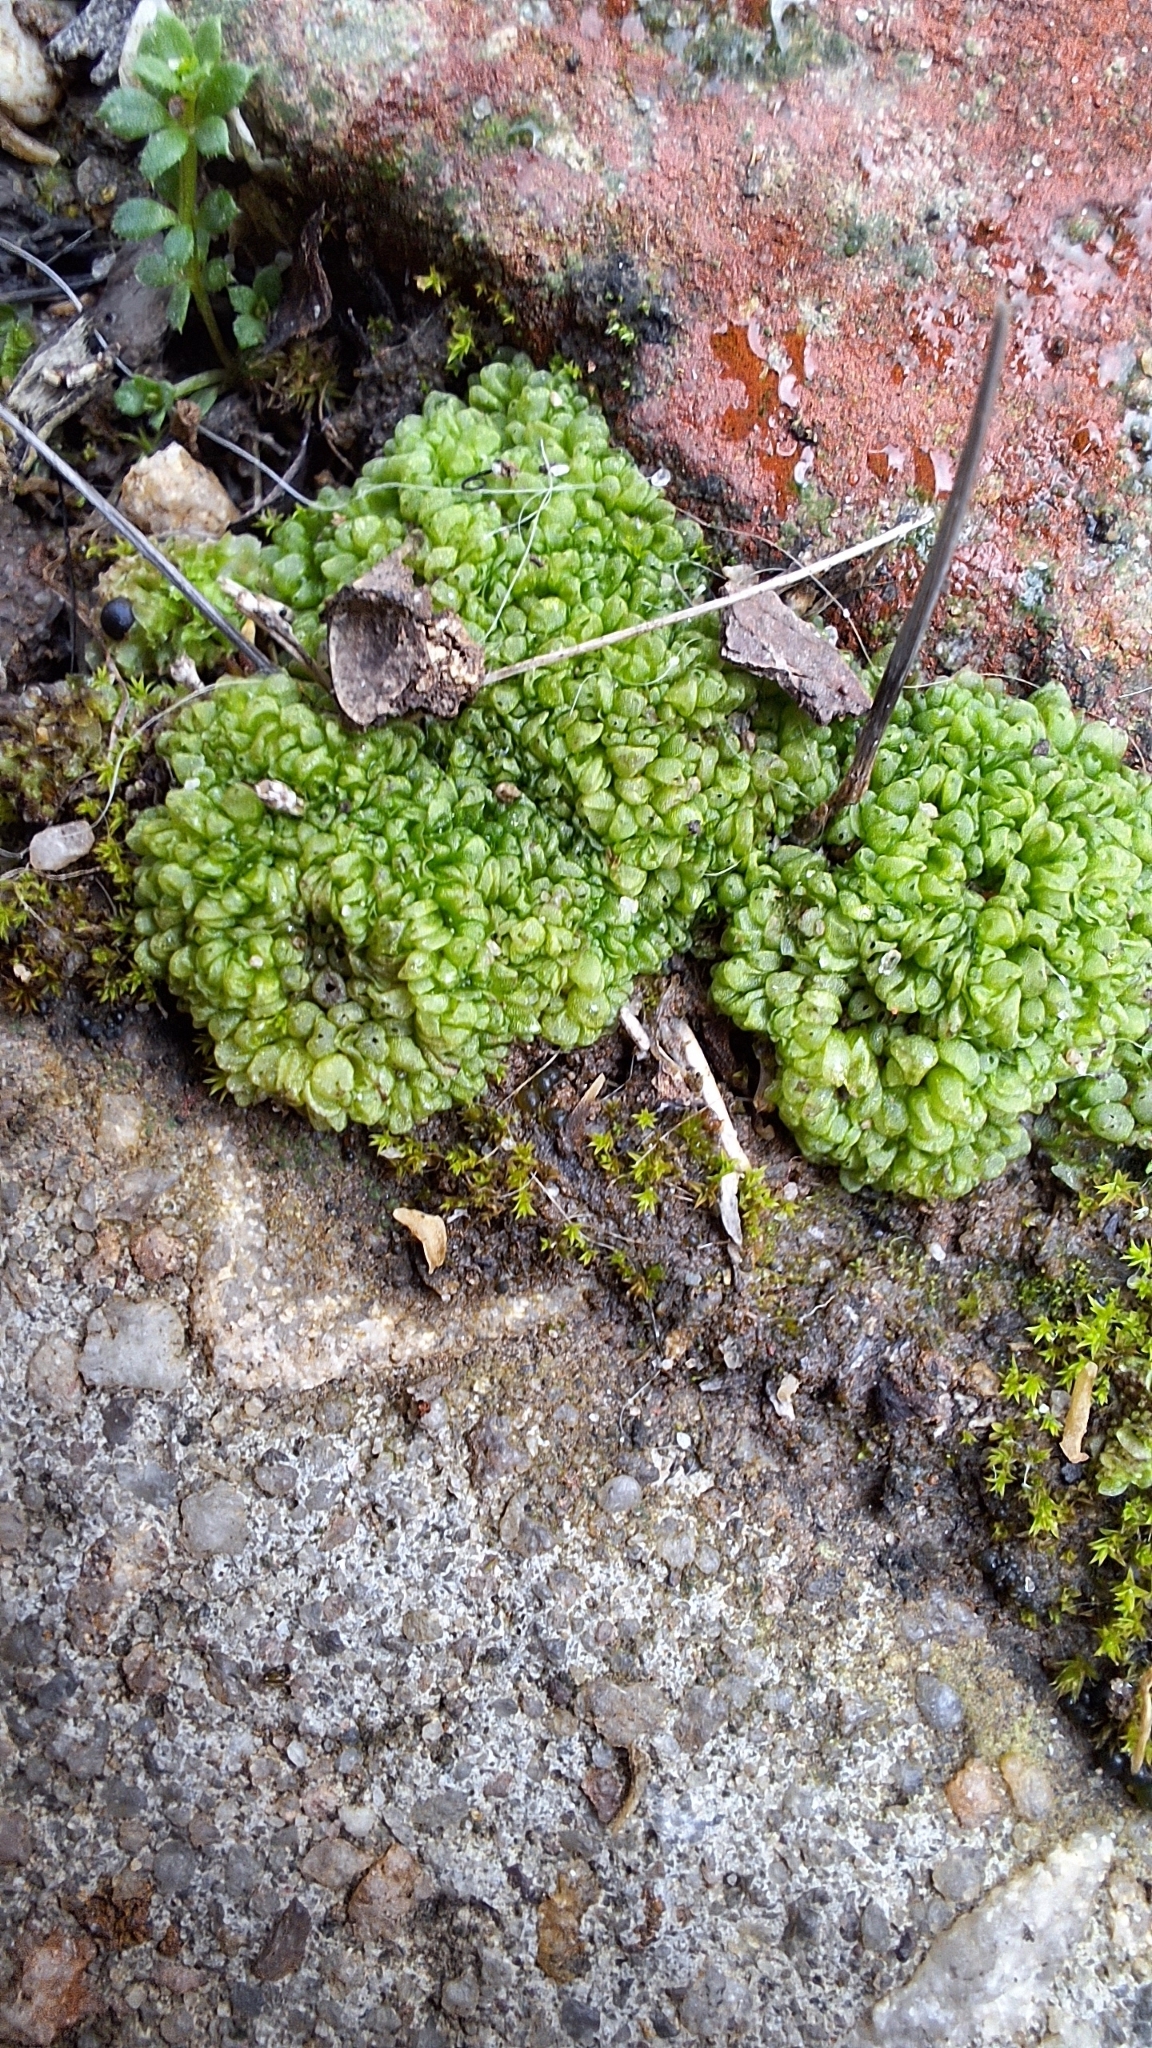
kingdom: Plantae
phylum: Marchantiophyta
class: Marchantiopsida
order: Sphaerocarpales
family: Sphaerocarpaceae
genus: Sphaerocarpos
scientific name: Sphaerocarpos texanus
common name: Texas balloonwort
